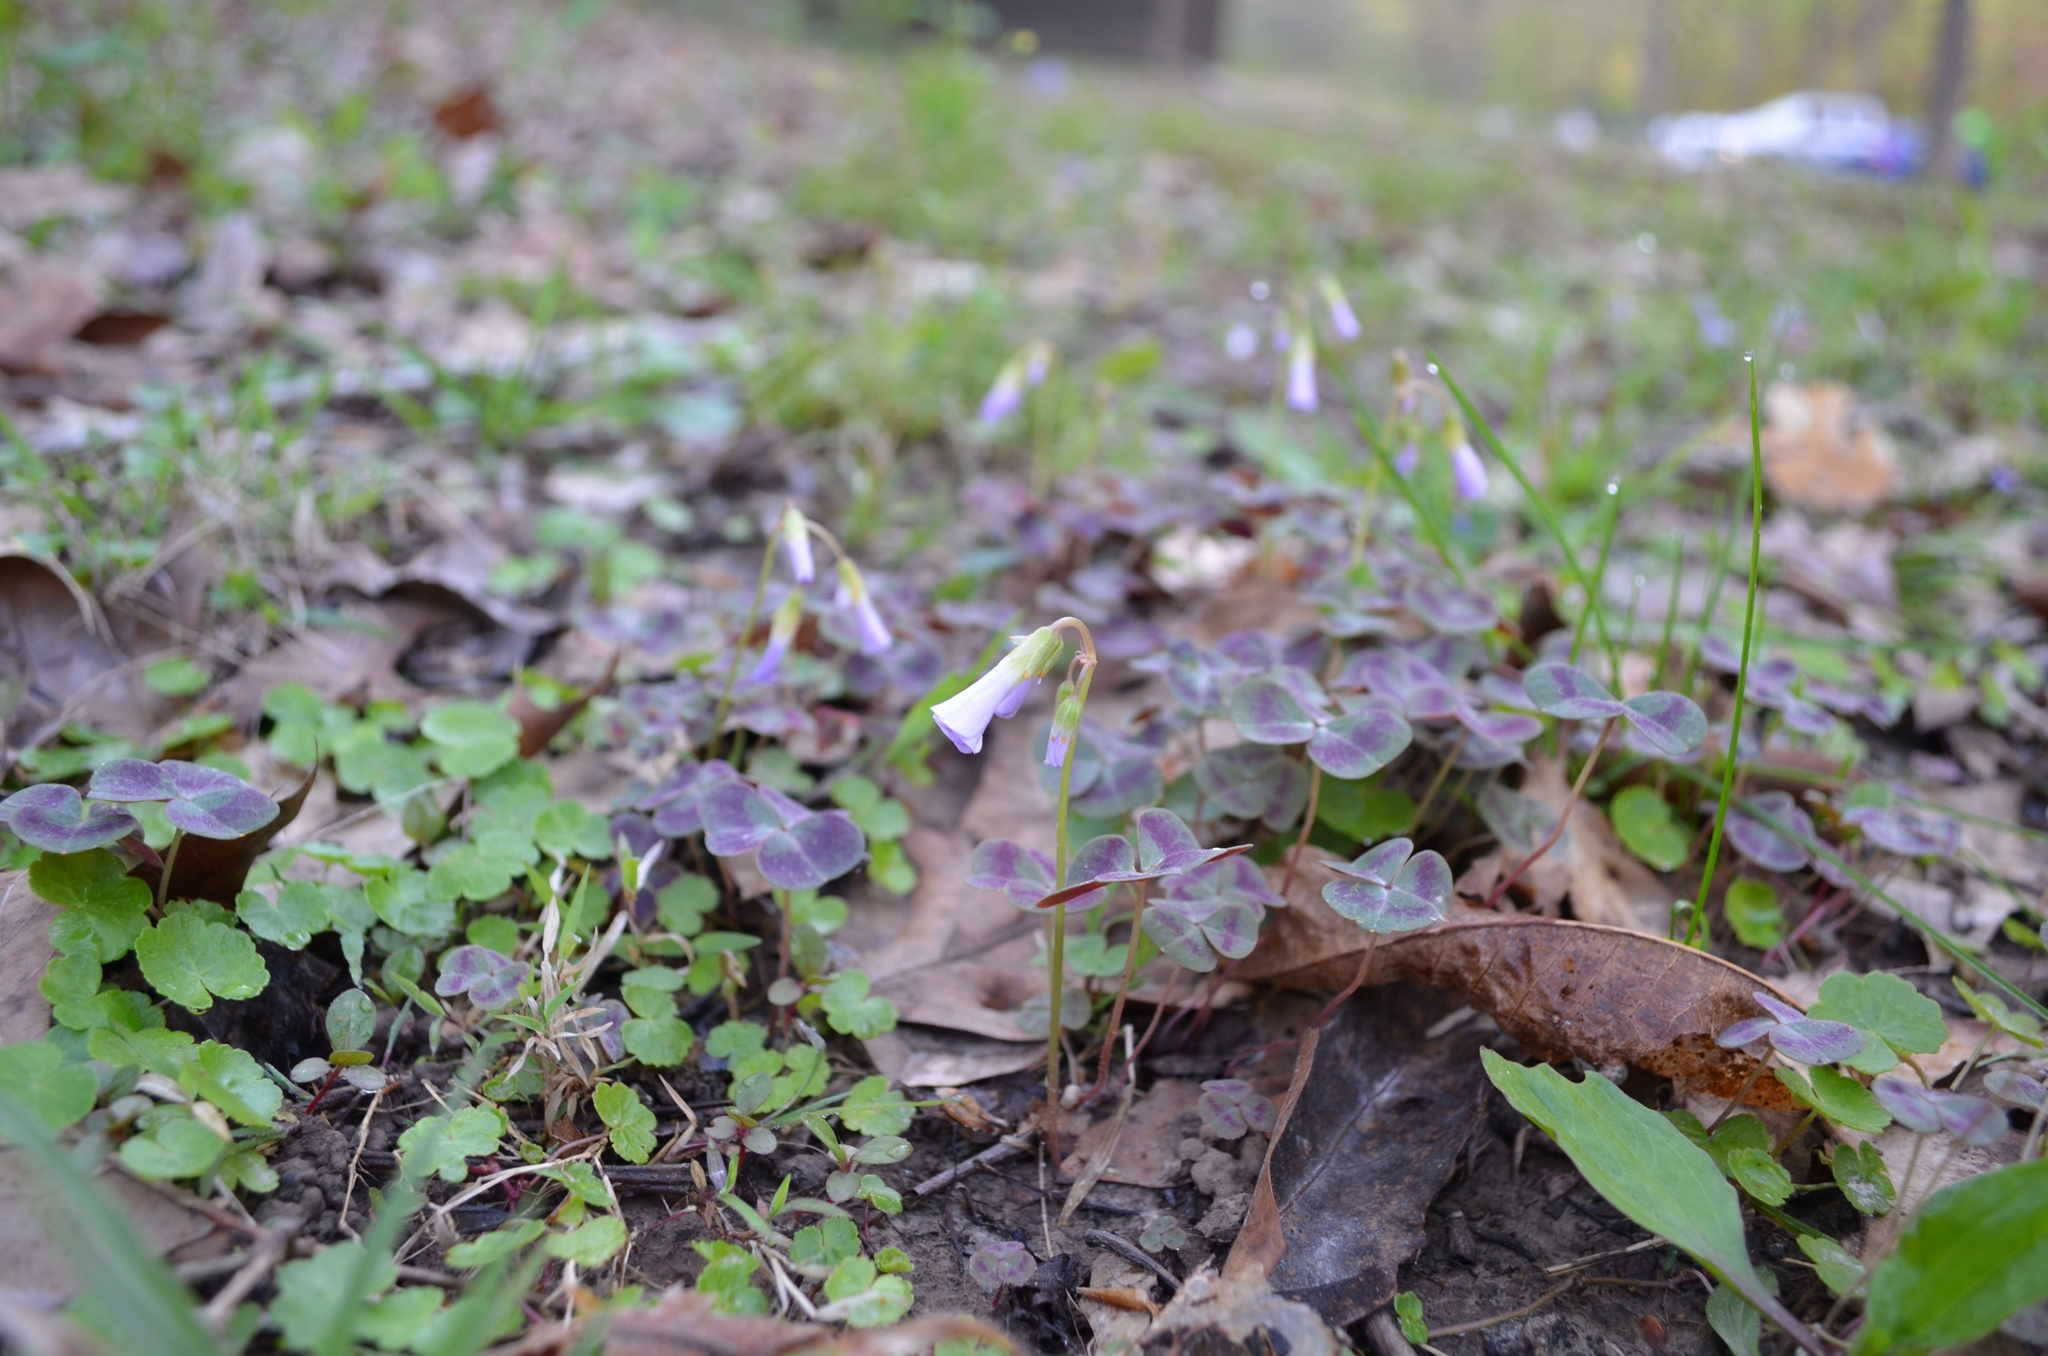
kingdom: Plantae
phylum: Tracheophyta
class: Magnoliopsida
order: Oxalidales
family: Oxalidaceae
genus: Oxalis
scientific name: Oxalis violacea
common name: Violet wood-sorrel
